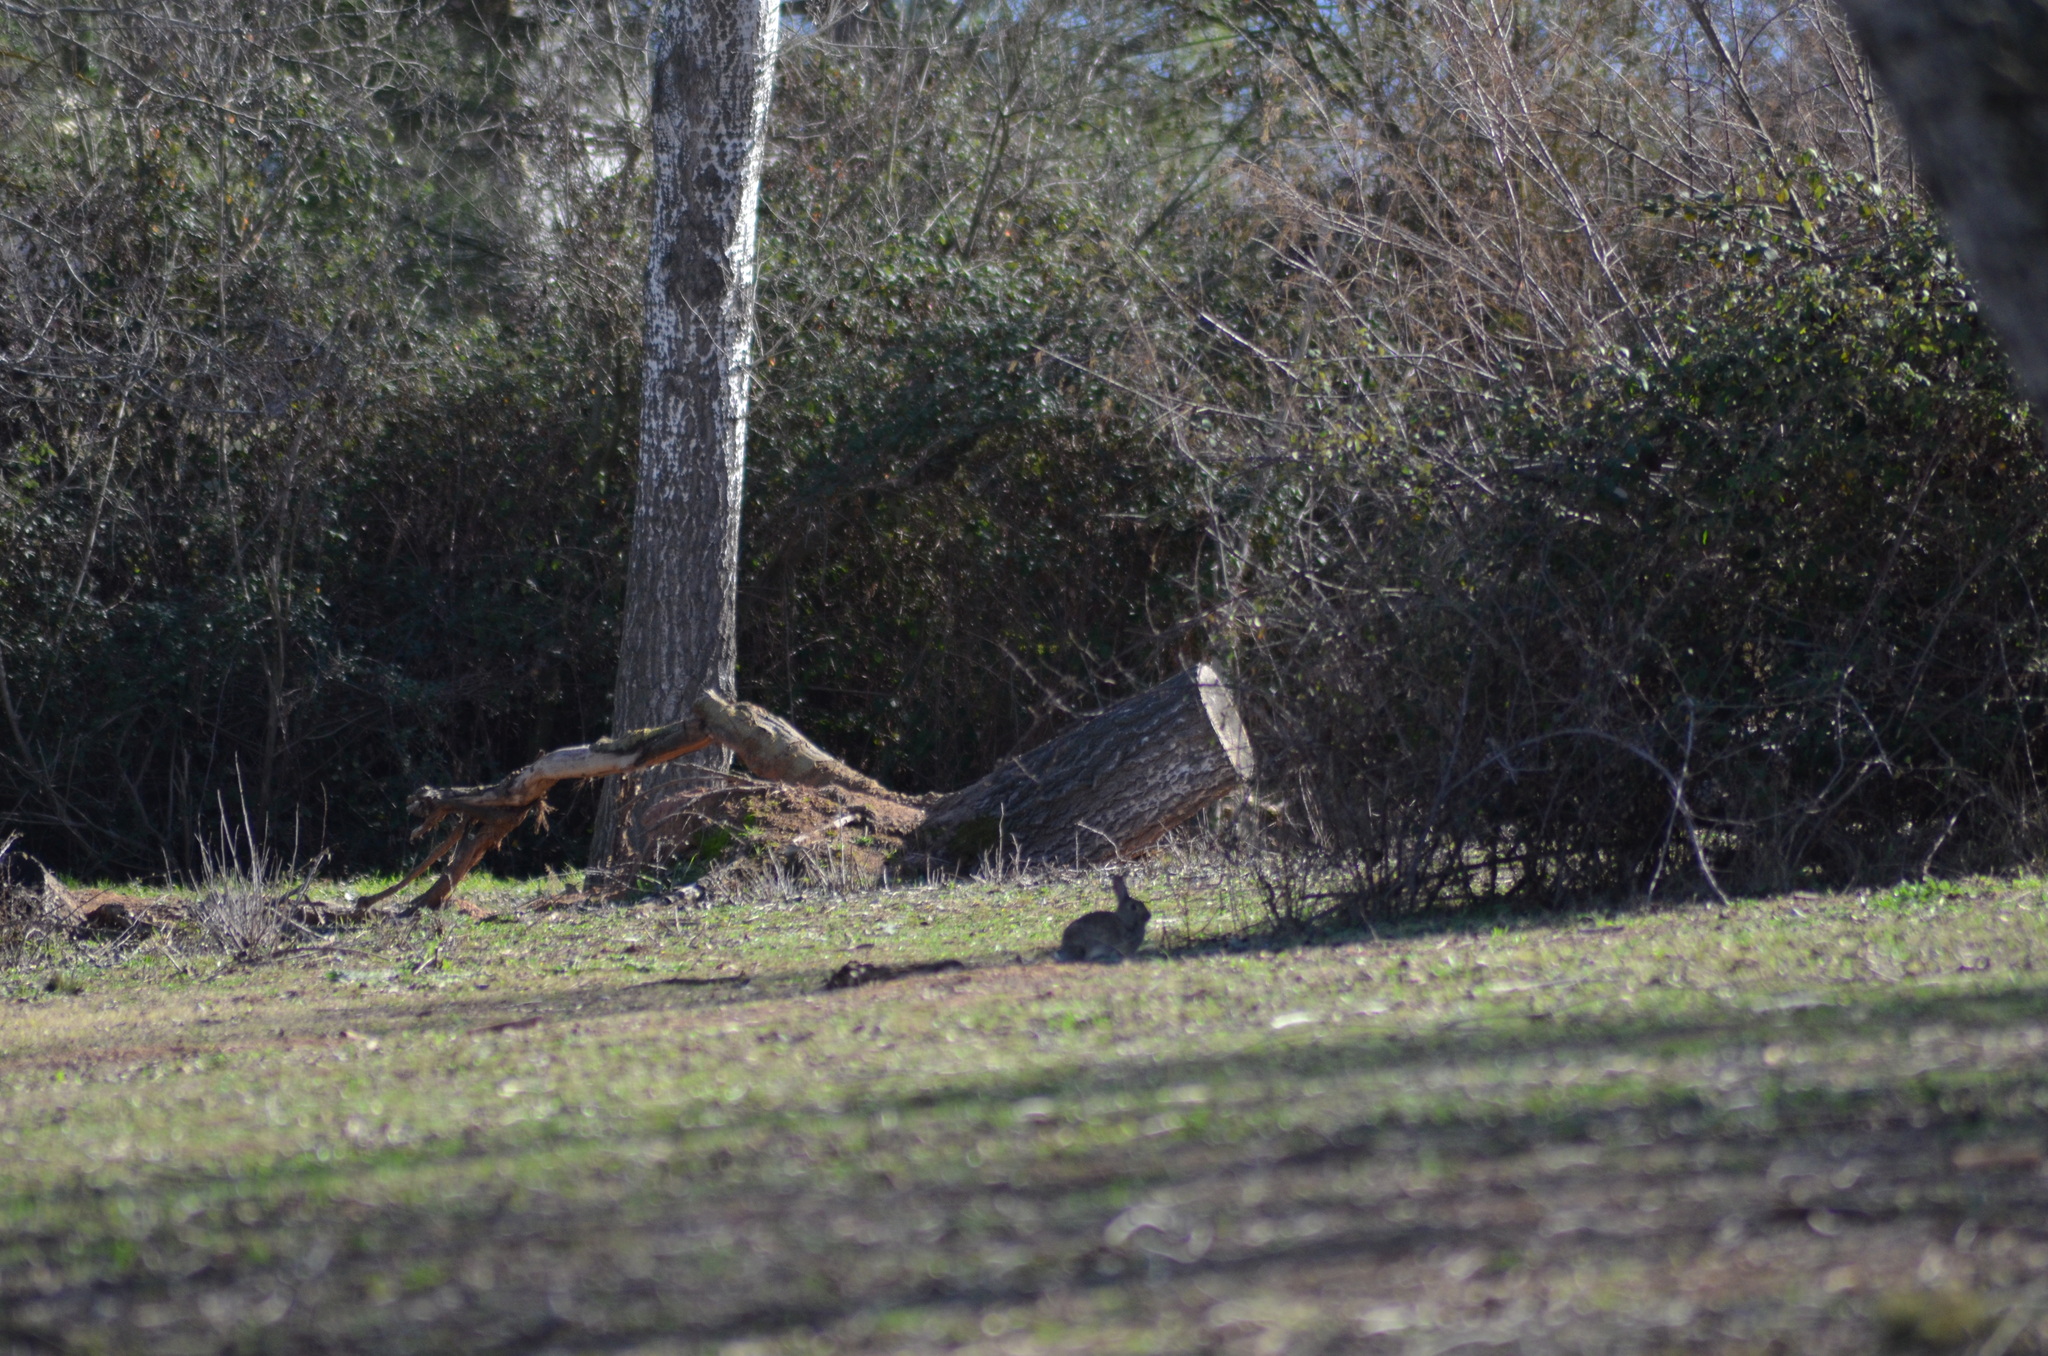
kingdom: Animalia
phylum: Chordata
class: Mammalia
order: Lagomorpha
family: Leporidae
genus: Oryctolagus
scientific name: Oryctolagus cuniculus
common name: European rabbit
